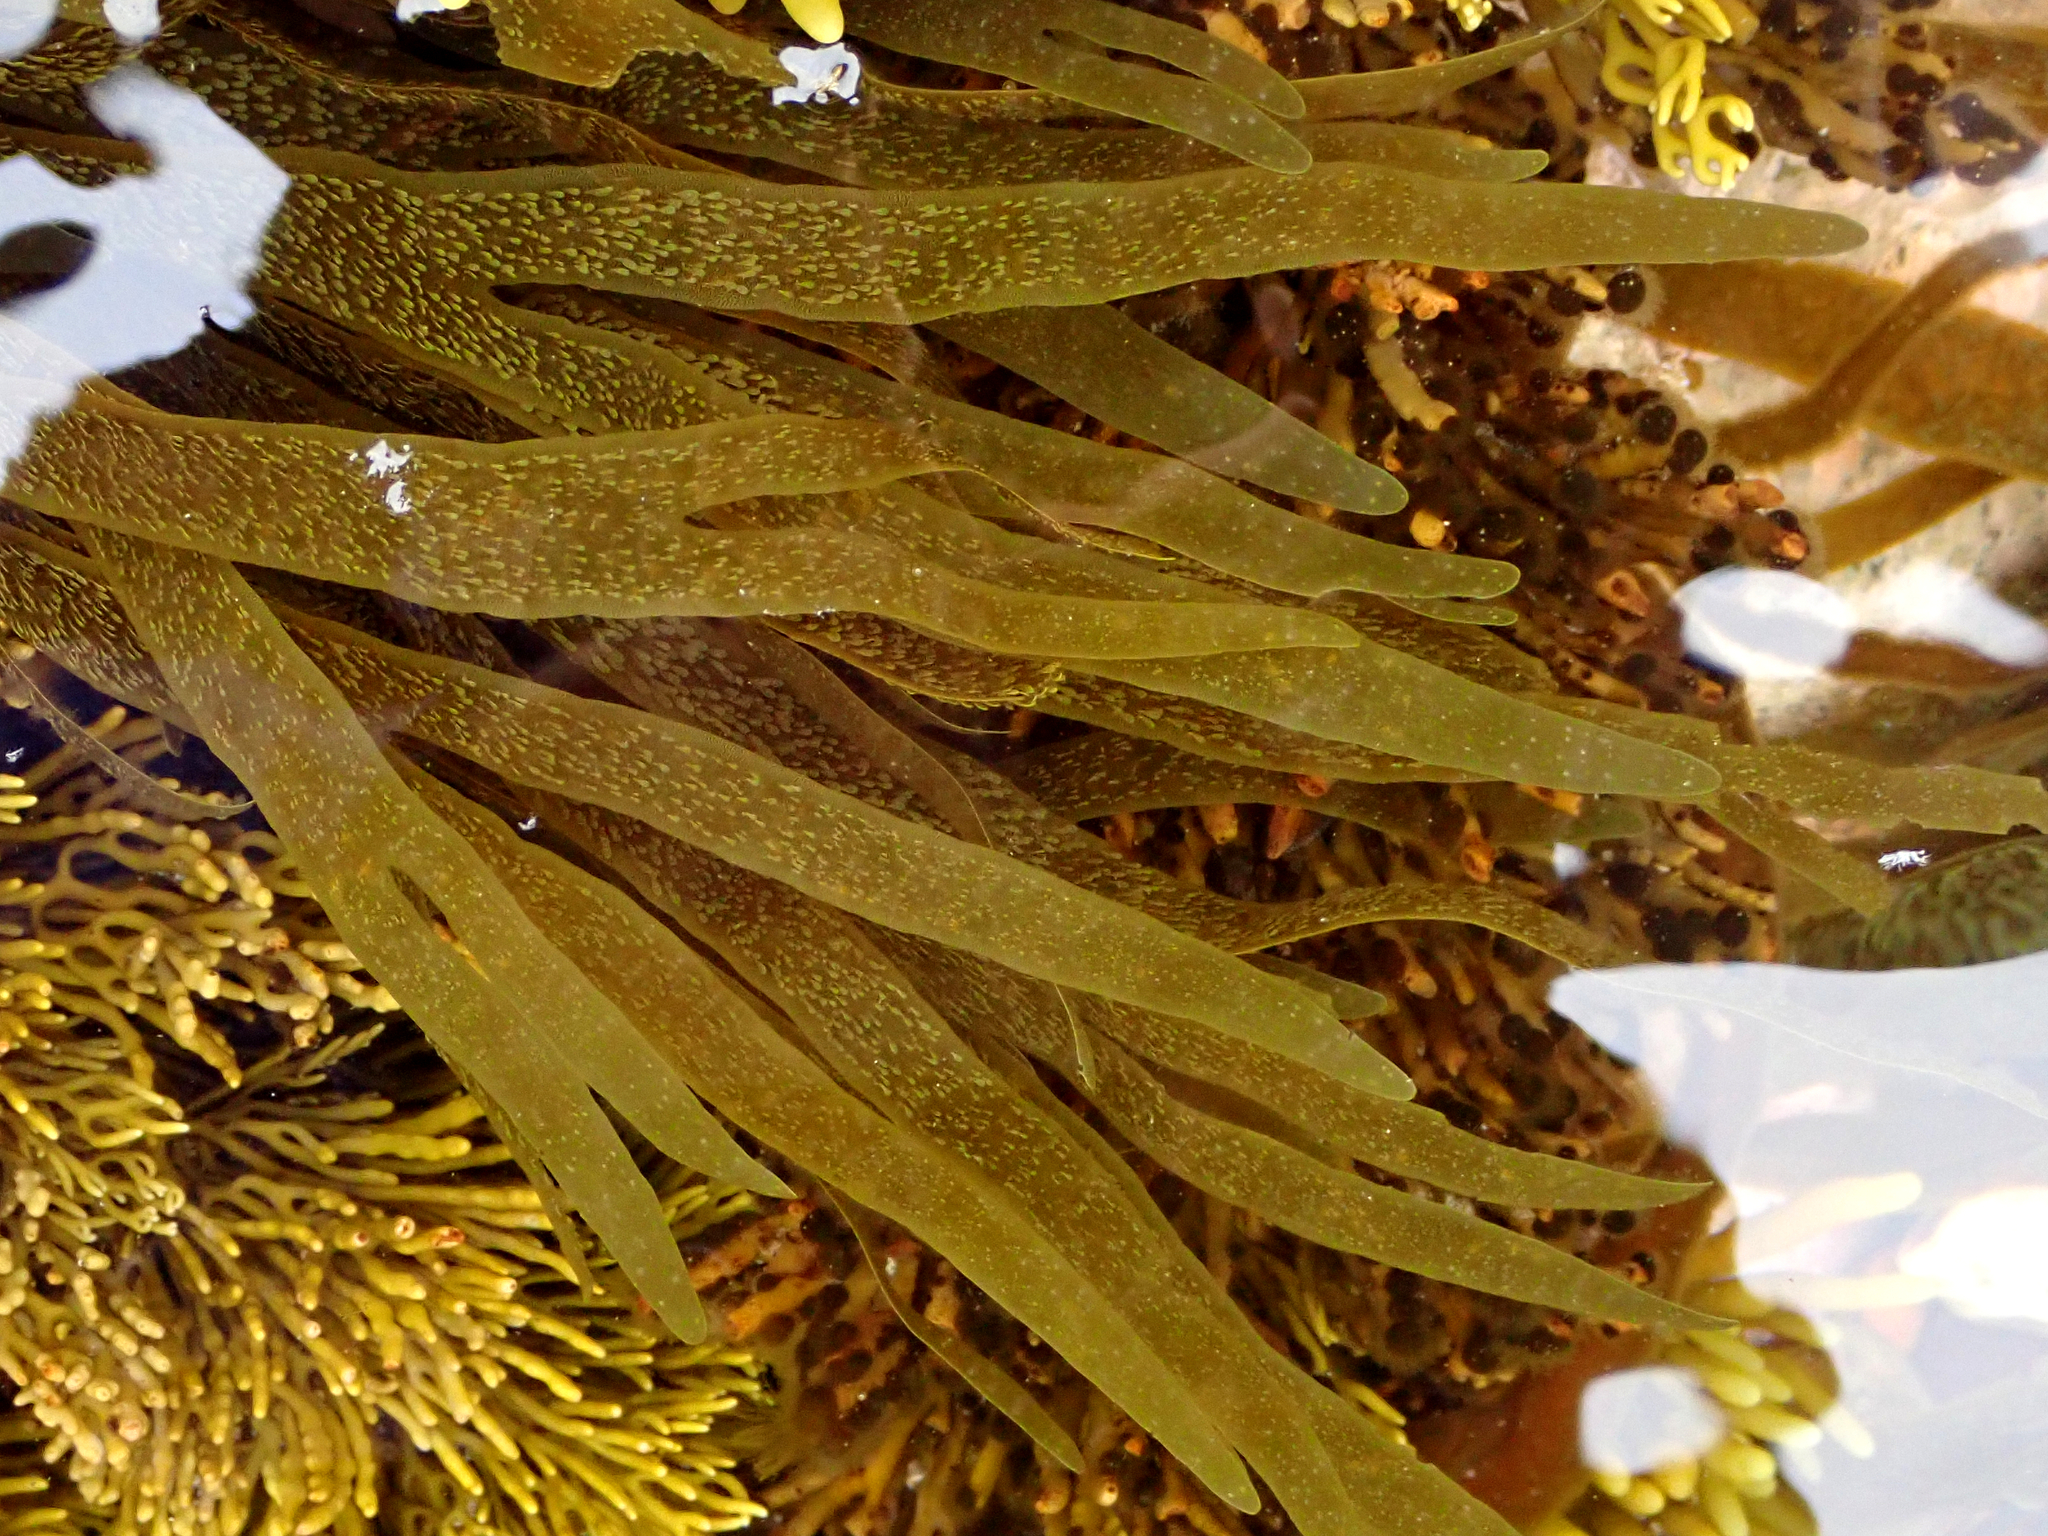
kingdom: Chromista
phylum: Ochrophyta
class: Phaeophyceae
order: Dictyotales
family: Dictyotaceae
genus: Dictyota
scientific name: Dictyota kunthii
